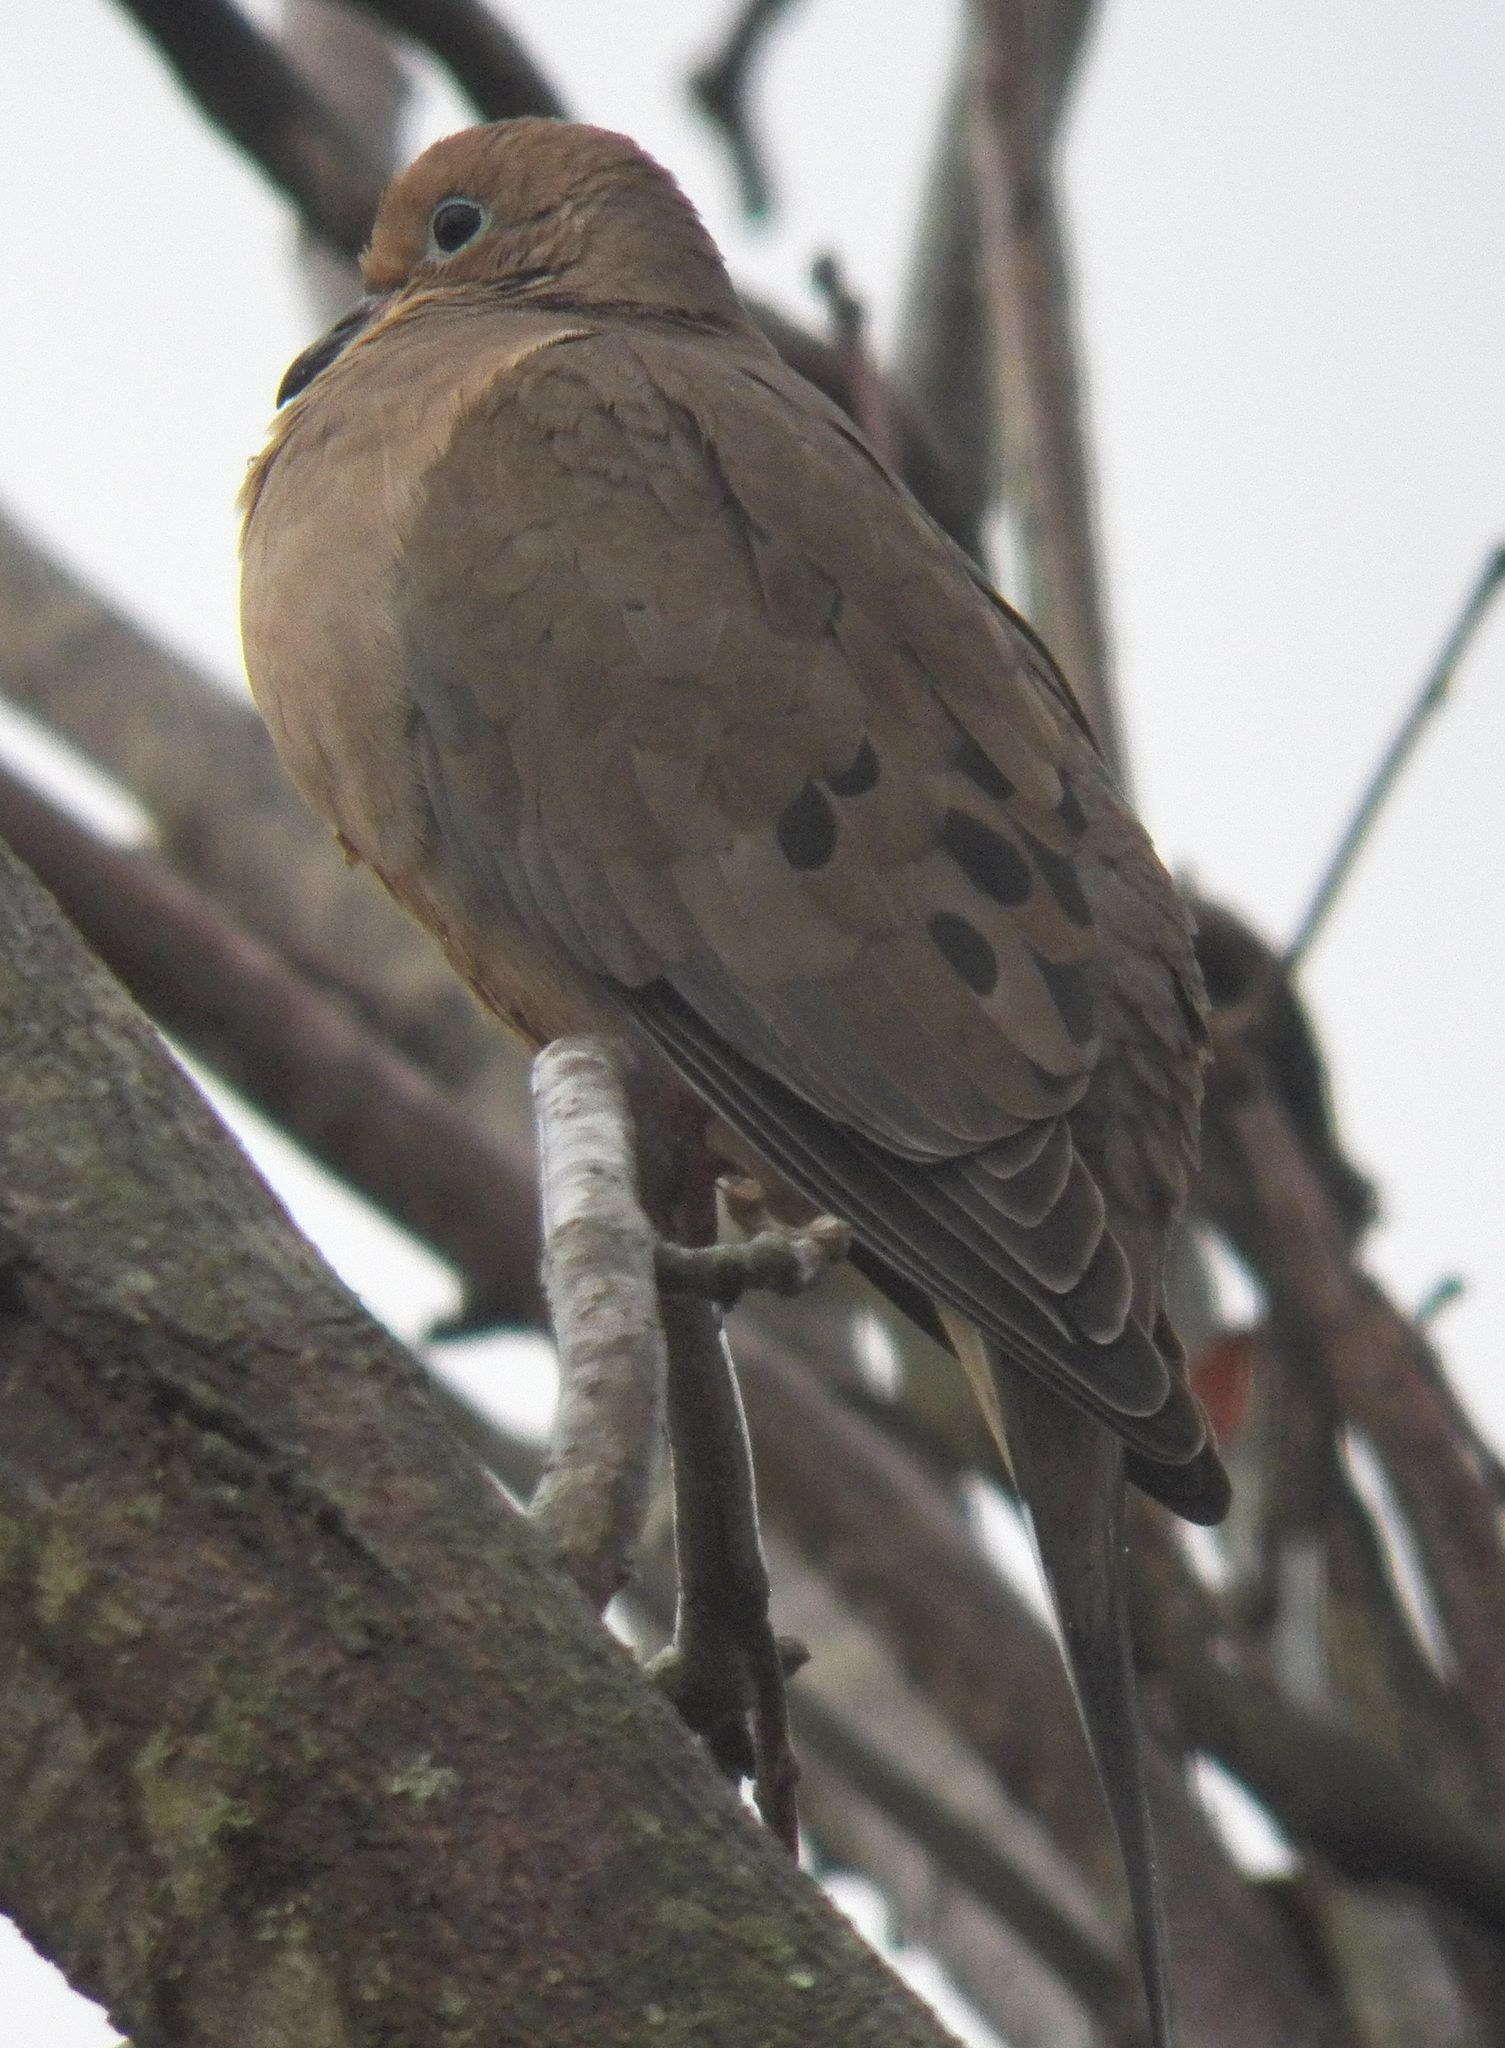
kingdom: Animalia
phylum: Chordata
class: Aves
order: Columbiformes
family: Columbidae
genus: Zenaida
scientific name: Zenaida macroura
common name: Mourning dove
